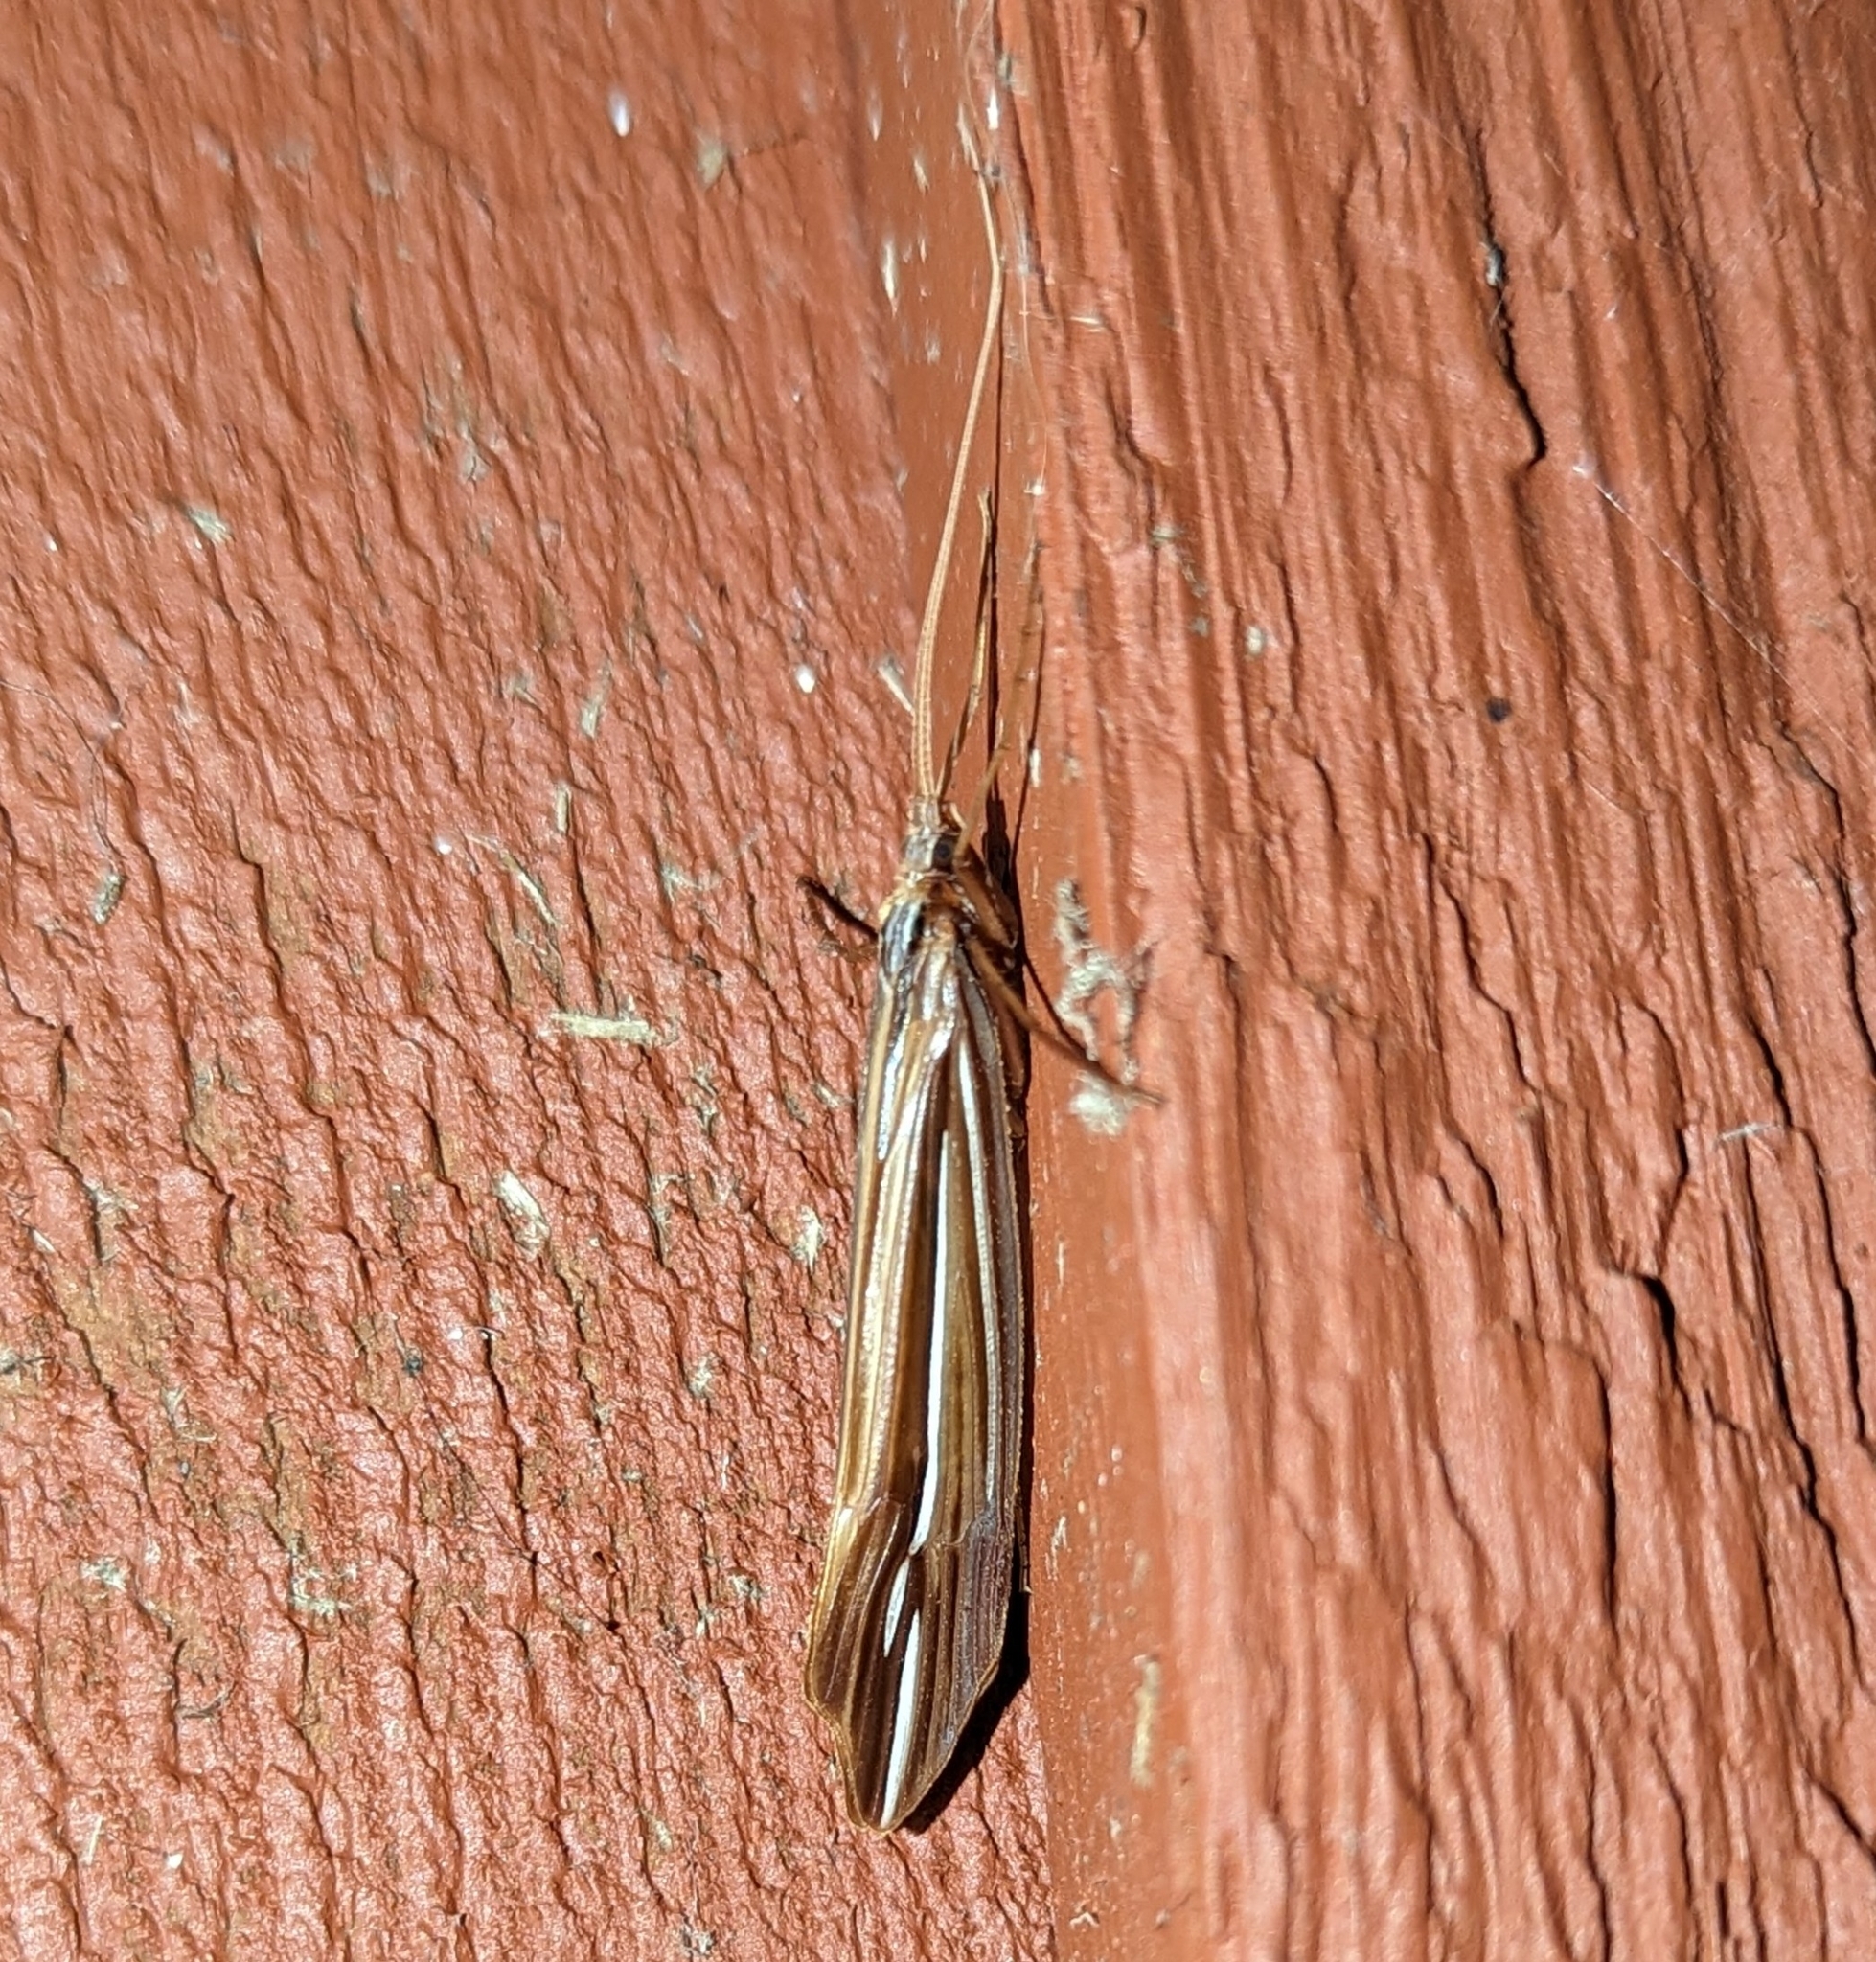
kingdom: Animalia
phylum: Arthropoda
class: Insecta
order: Trichoptera
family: Limnephilidae
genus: Psychoglypha
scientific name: Psychoglypha bella
